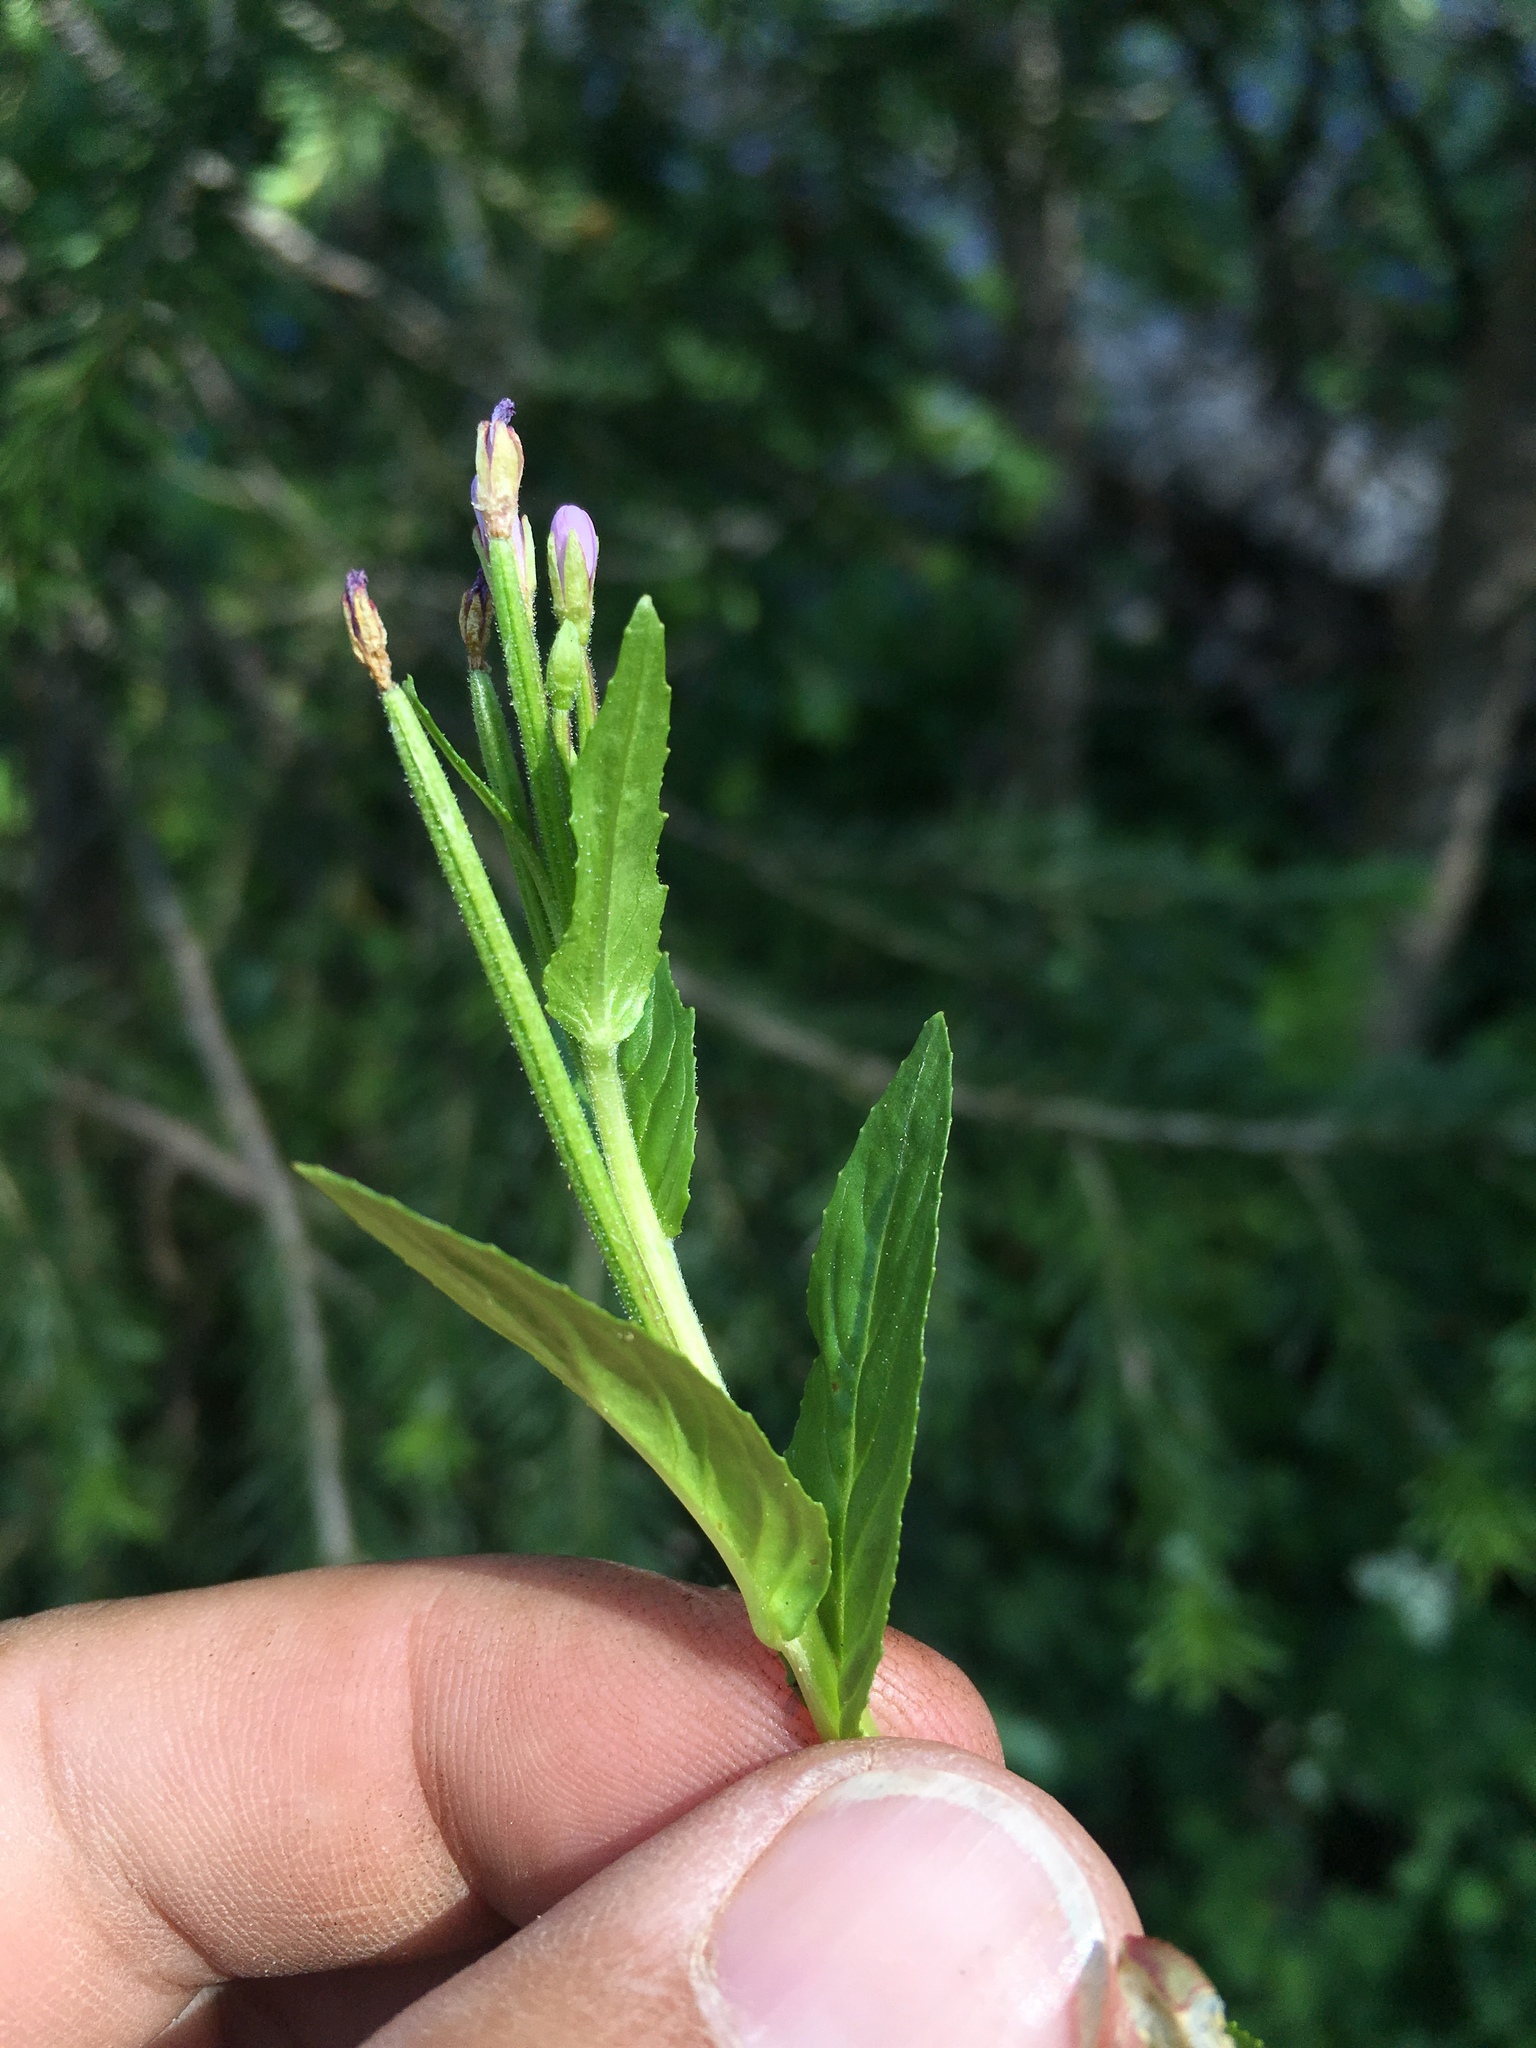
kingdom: Plantae
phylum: Tracheophyta
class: Magnoliopsida
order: Myrtales
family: Onagraceae
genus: Epilobium
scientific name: Epilobium hornemannii
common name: Hornemann's willowherb
